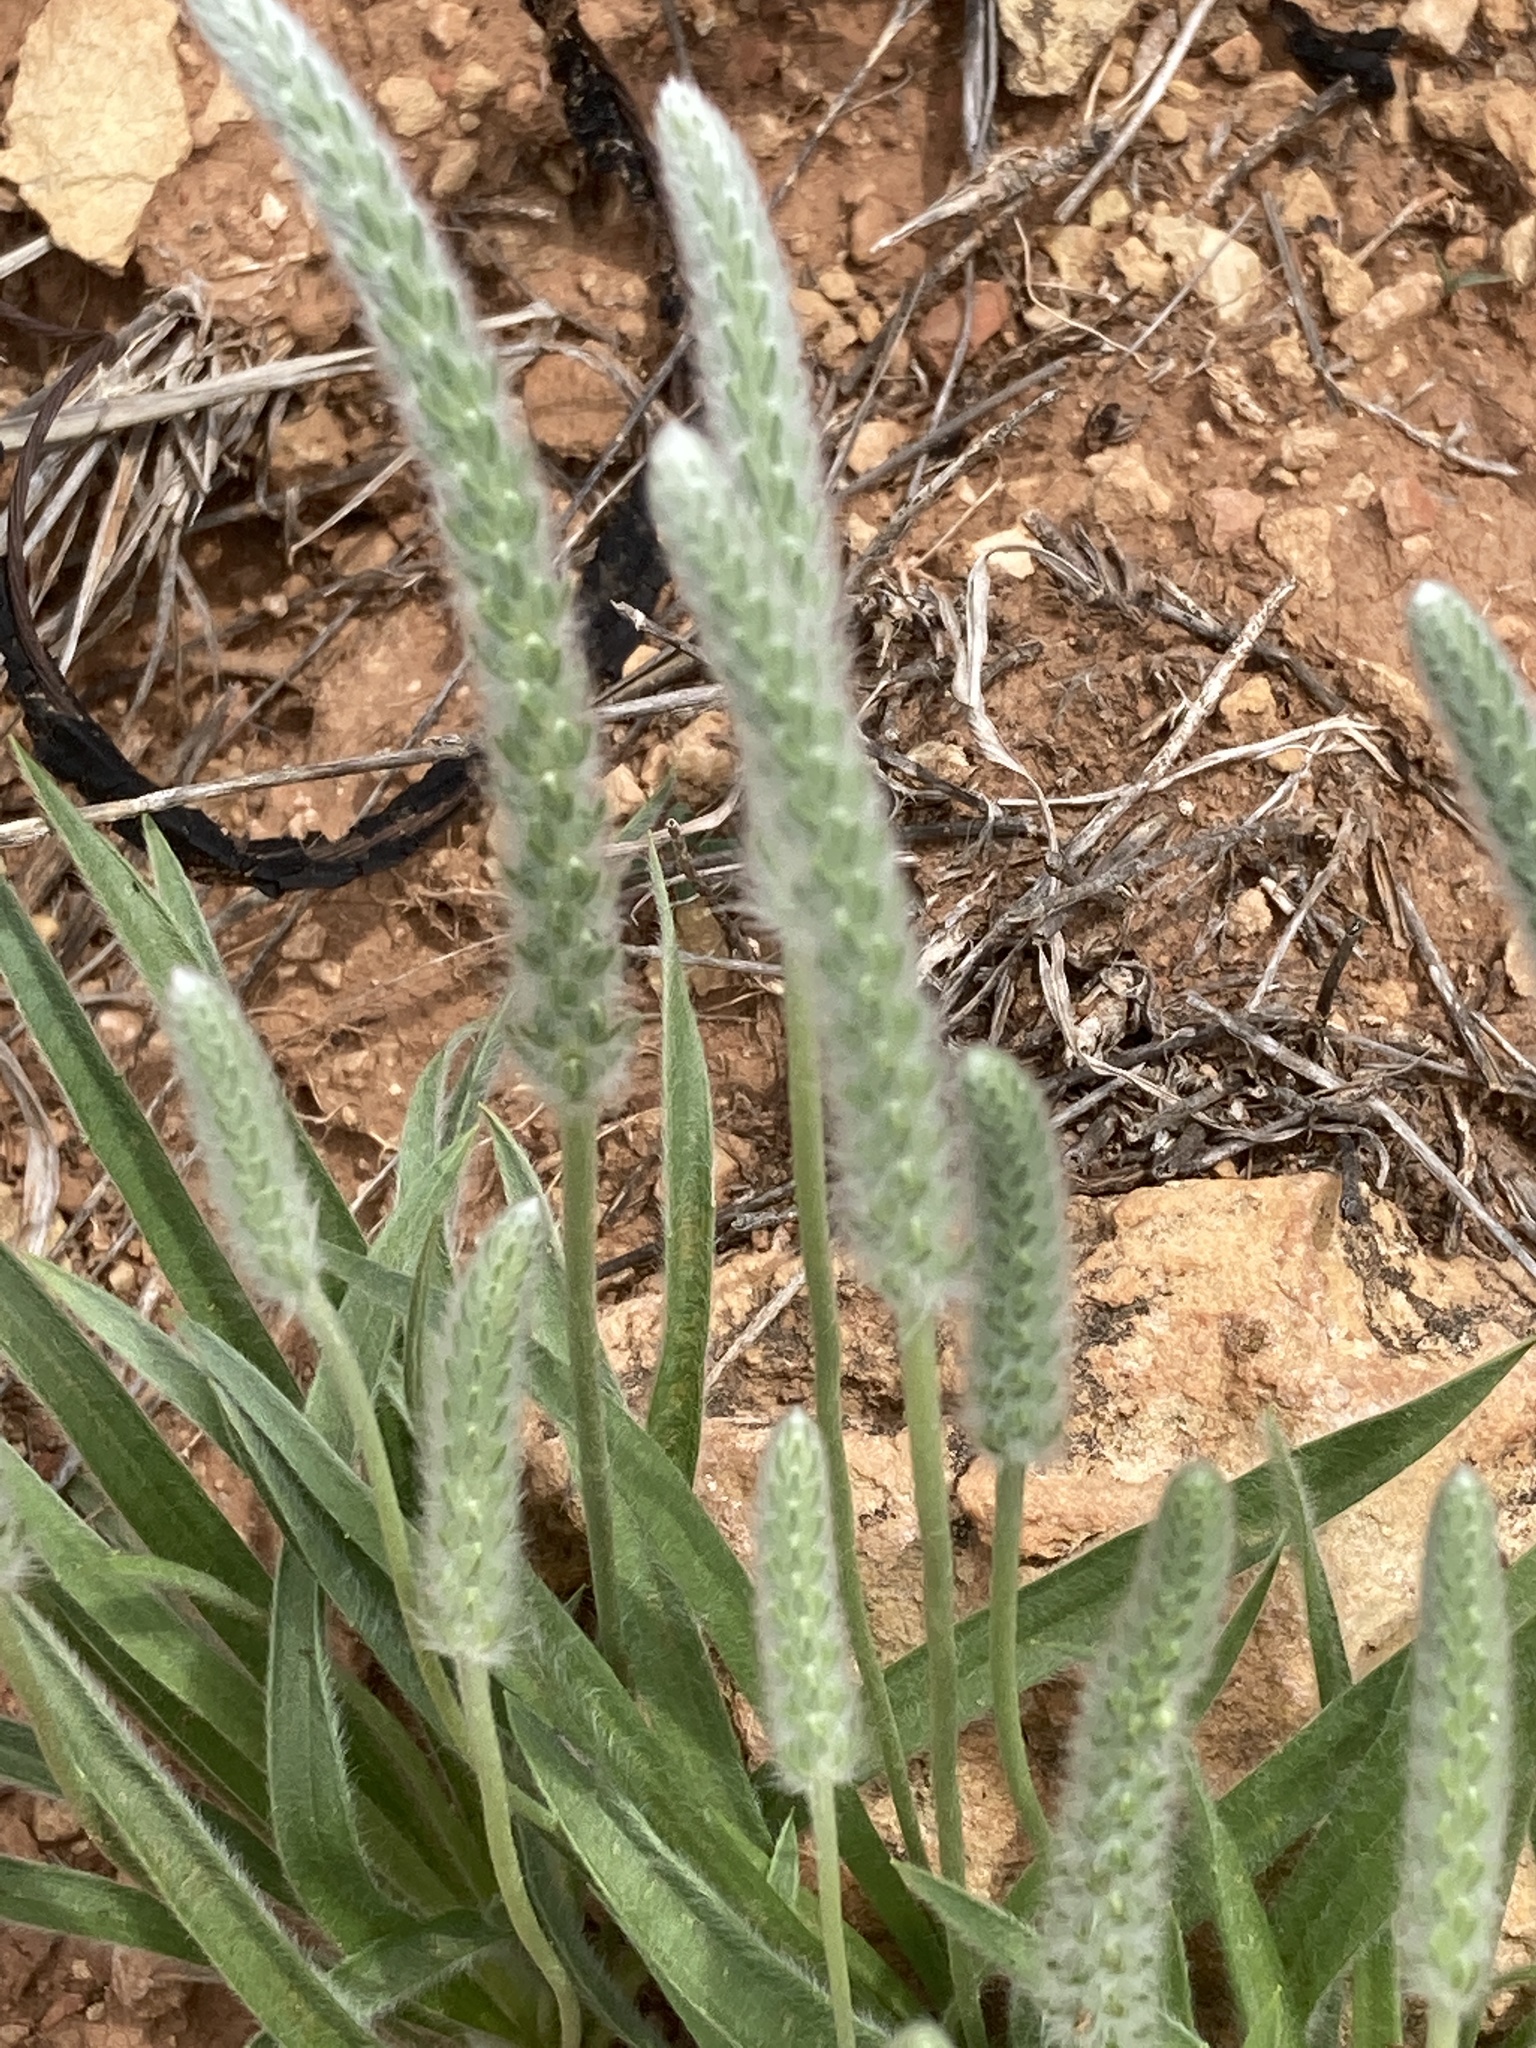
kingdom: Plantae
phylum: Tracheophyta
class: Magnoliopsida
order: Lamiales
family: Plantaginaceae
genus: Plantago
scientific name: Plantago patagonica
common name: Patagonia indian-wheat
